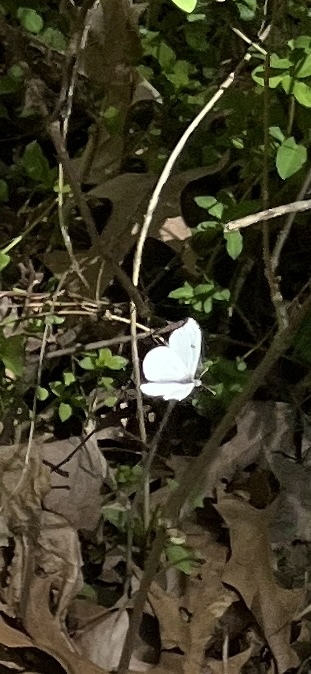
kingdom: Animalia
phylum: Arthropoda
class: Insecta
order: Lepidoptera
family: Pieridae
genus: Anthocharis
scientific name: Anthocharis midea
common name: Falcate orangetip
